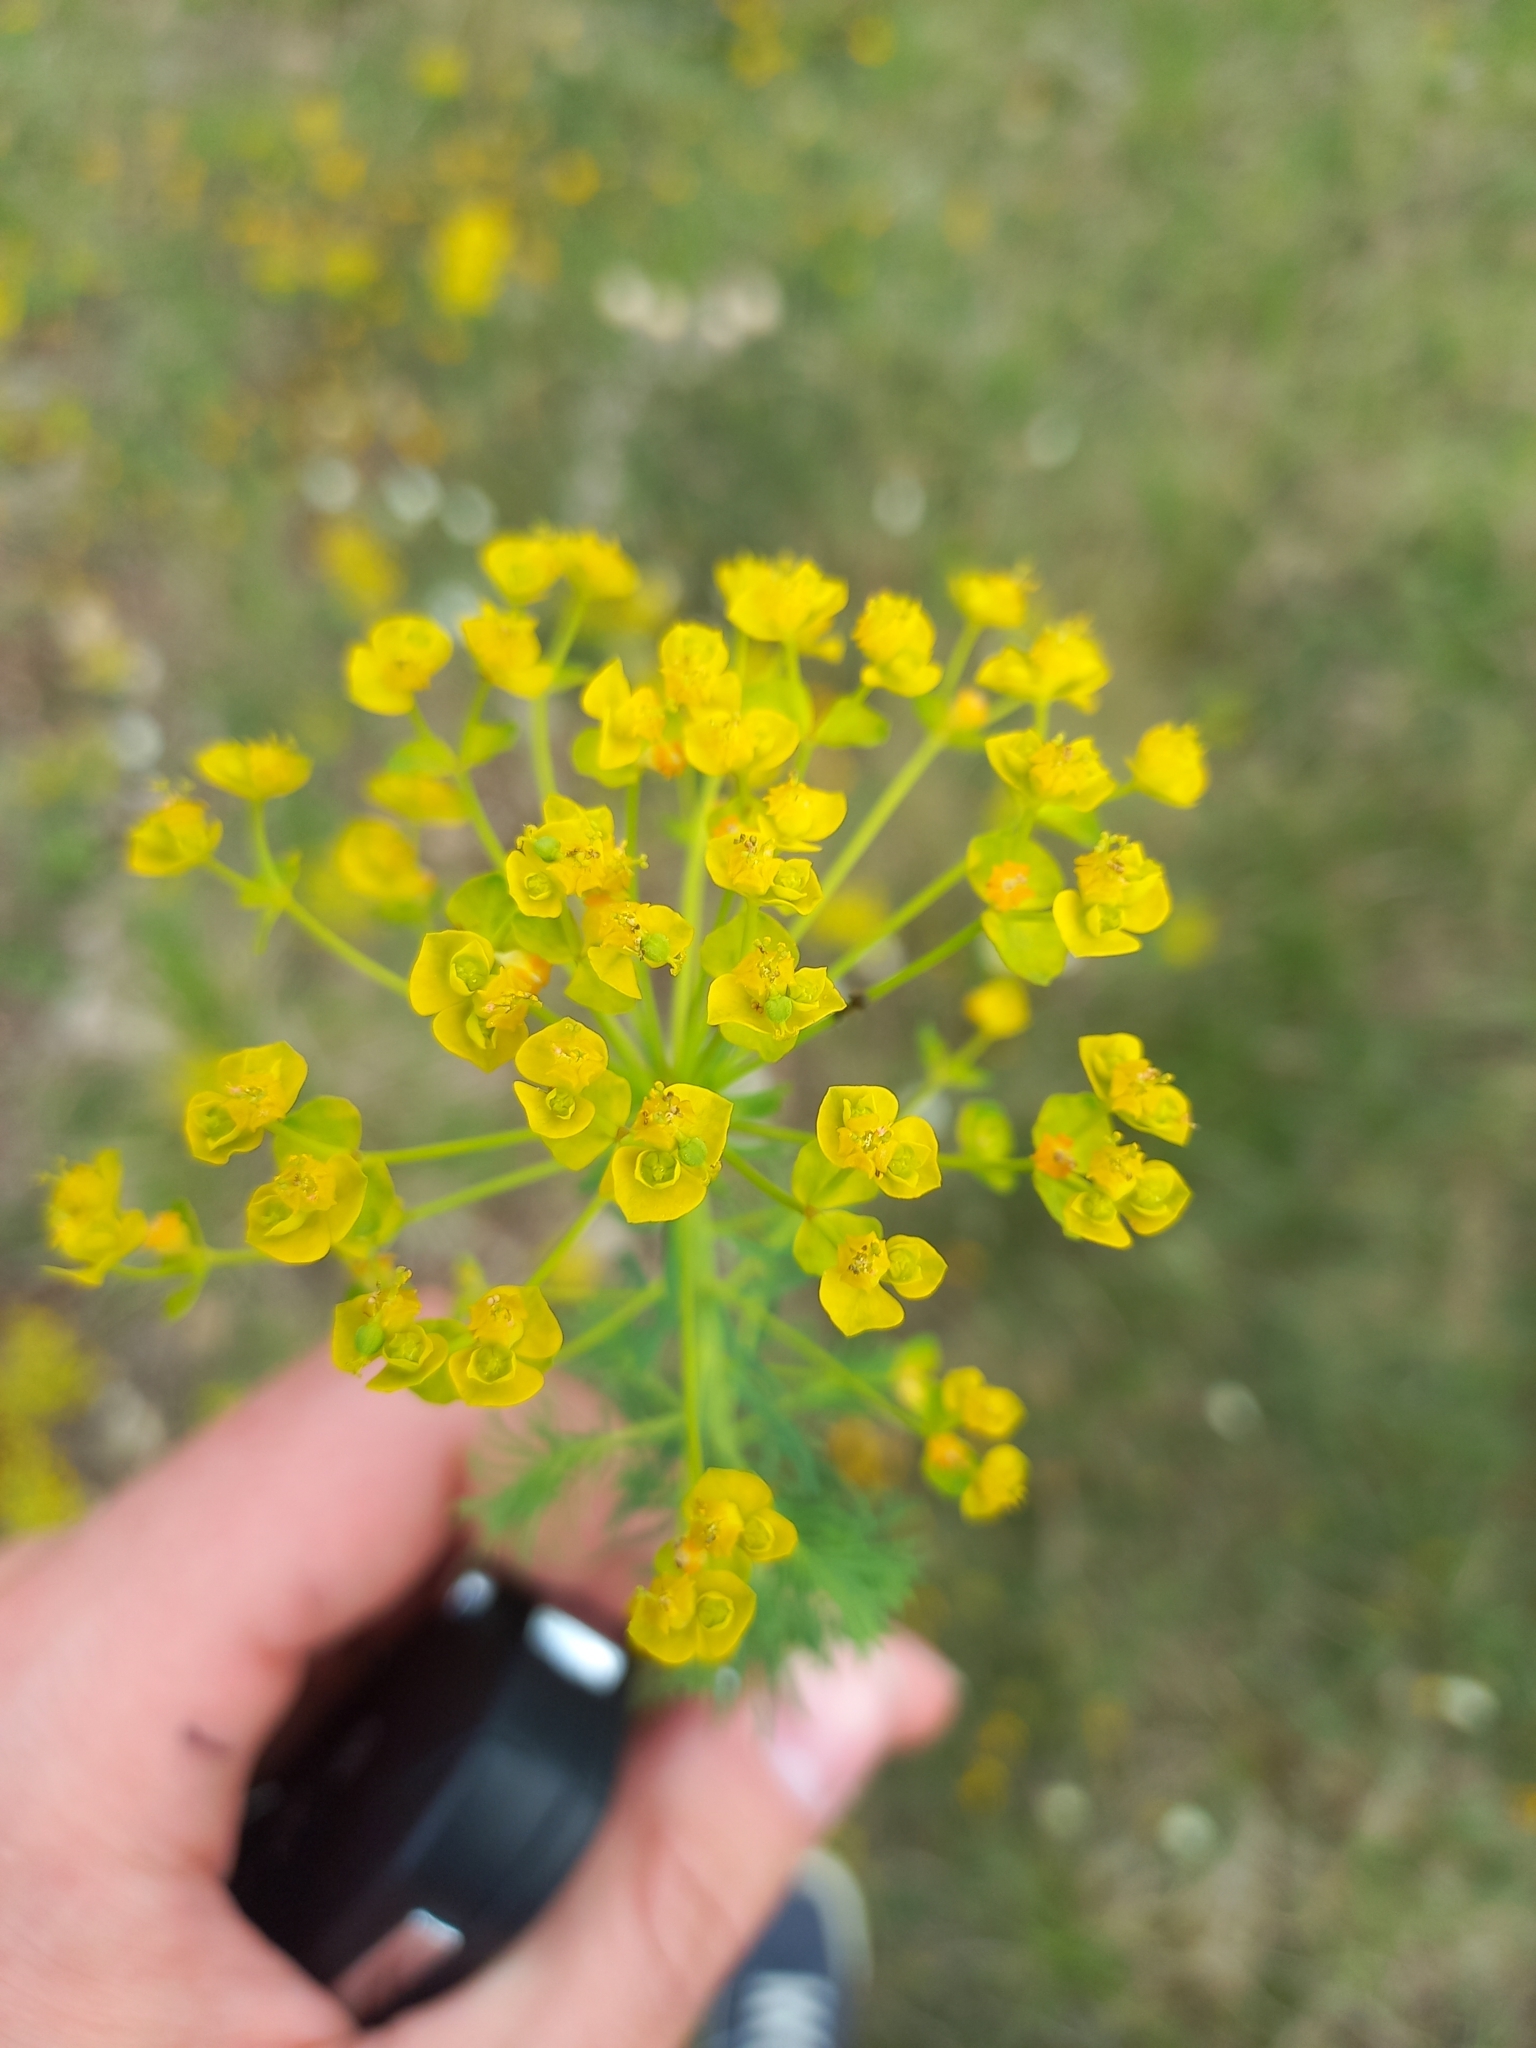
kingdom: Plantae
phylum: Tracheophyta
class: Magnoliopsida
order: Malpighiales
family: Euphorbiaceae
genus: Euphorbia
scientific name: Euphorbia cyparissias
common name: Cypress spurge
